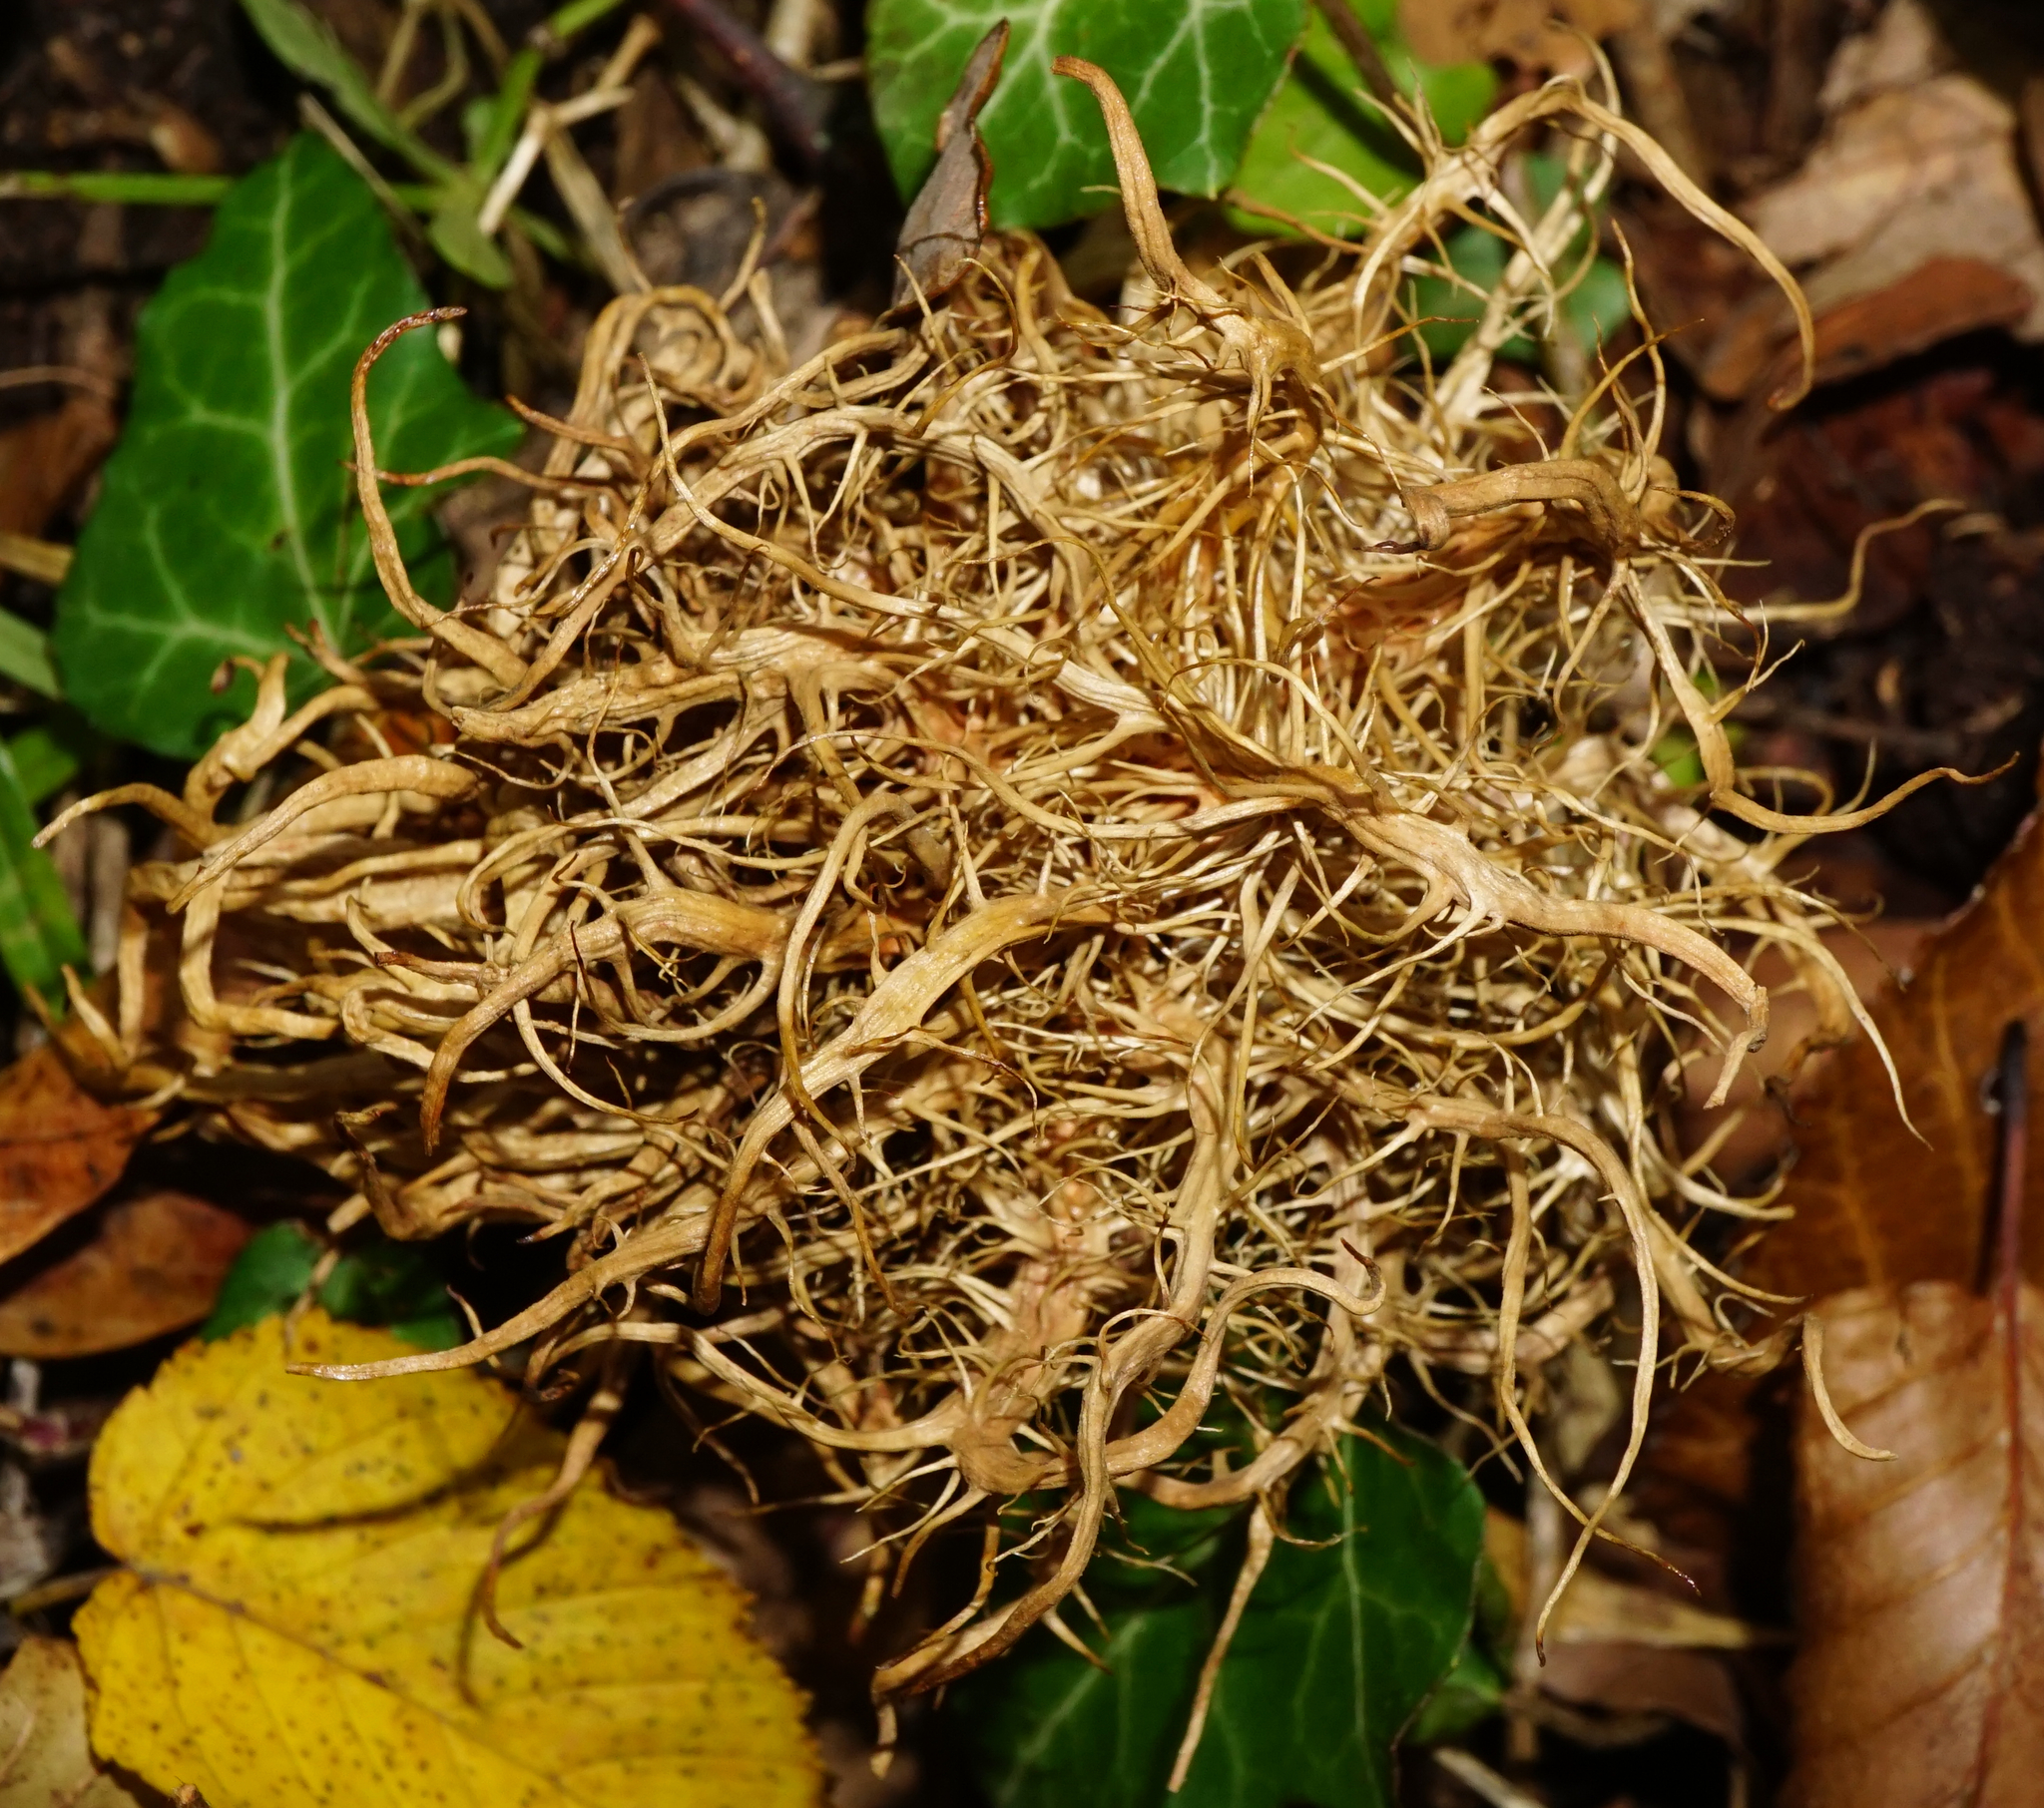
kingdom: Animalia
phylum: Arthropoda
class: Insecta
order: Hymenoptera
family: Cynipidae
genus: Andricus
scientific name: Andricus caputmedusae
